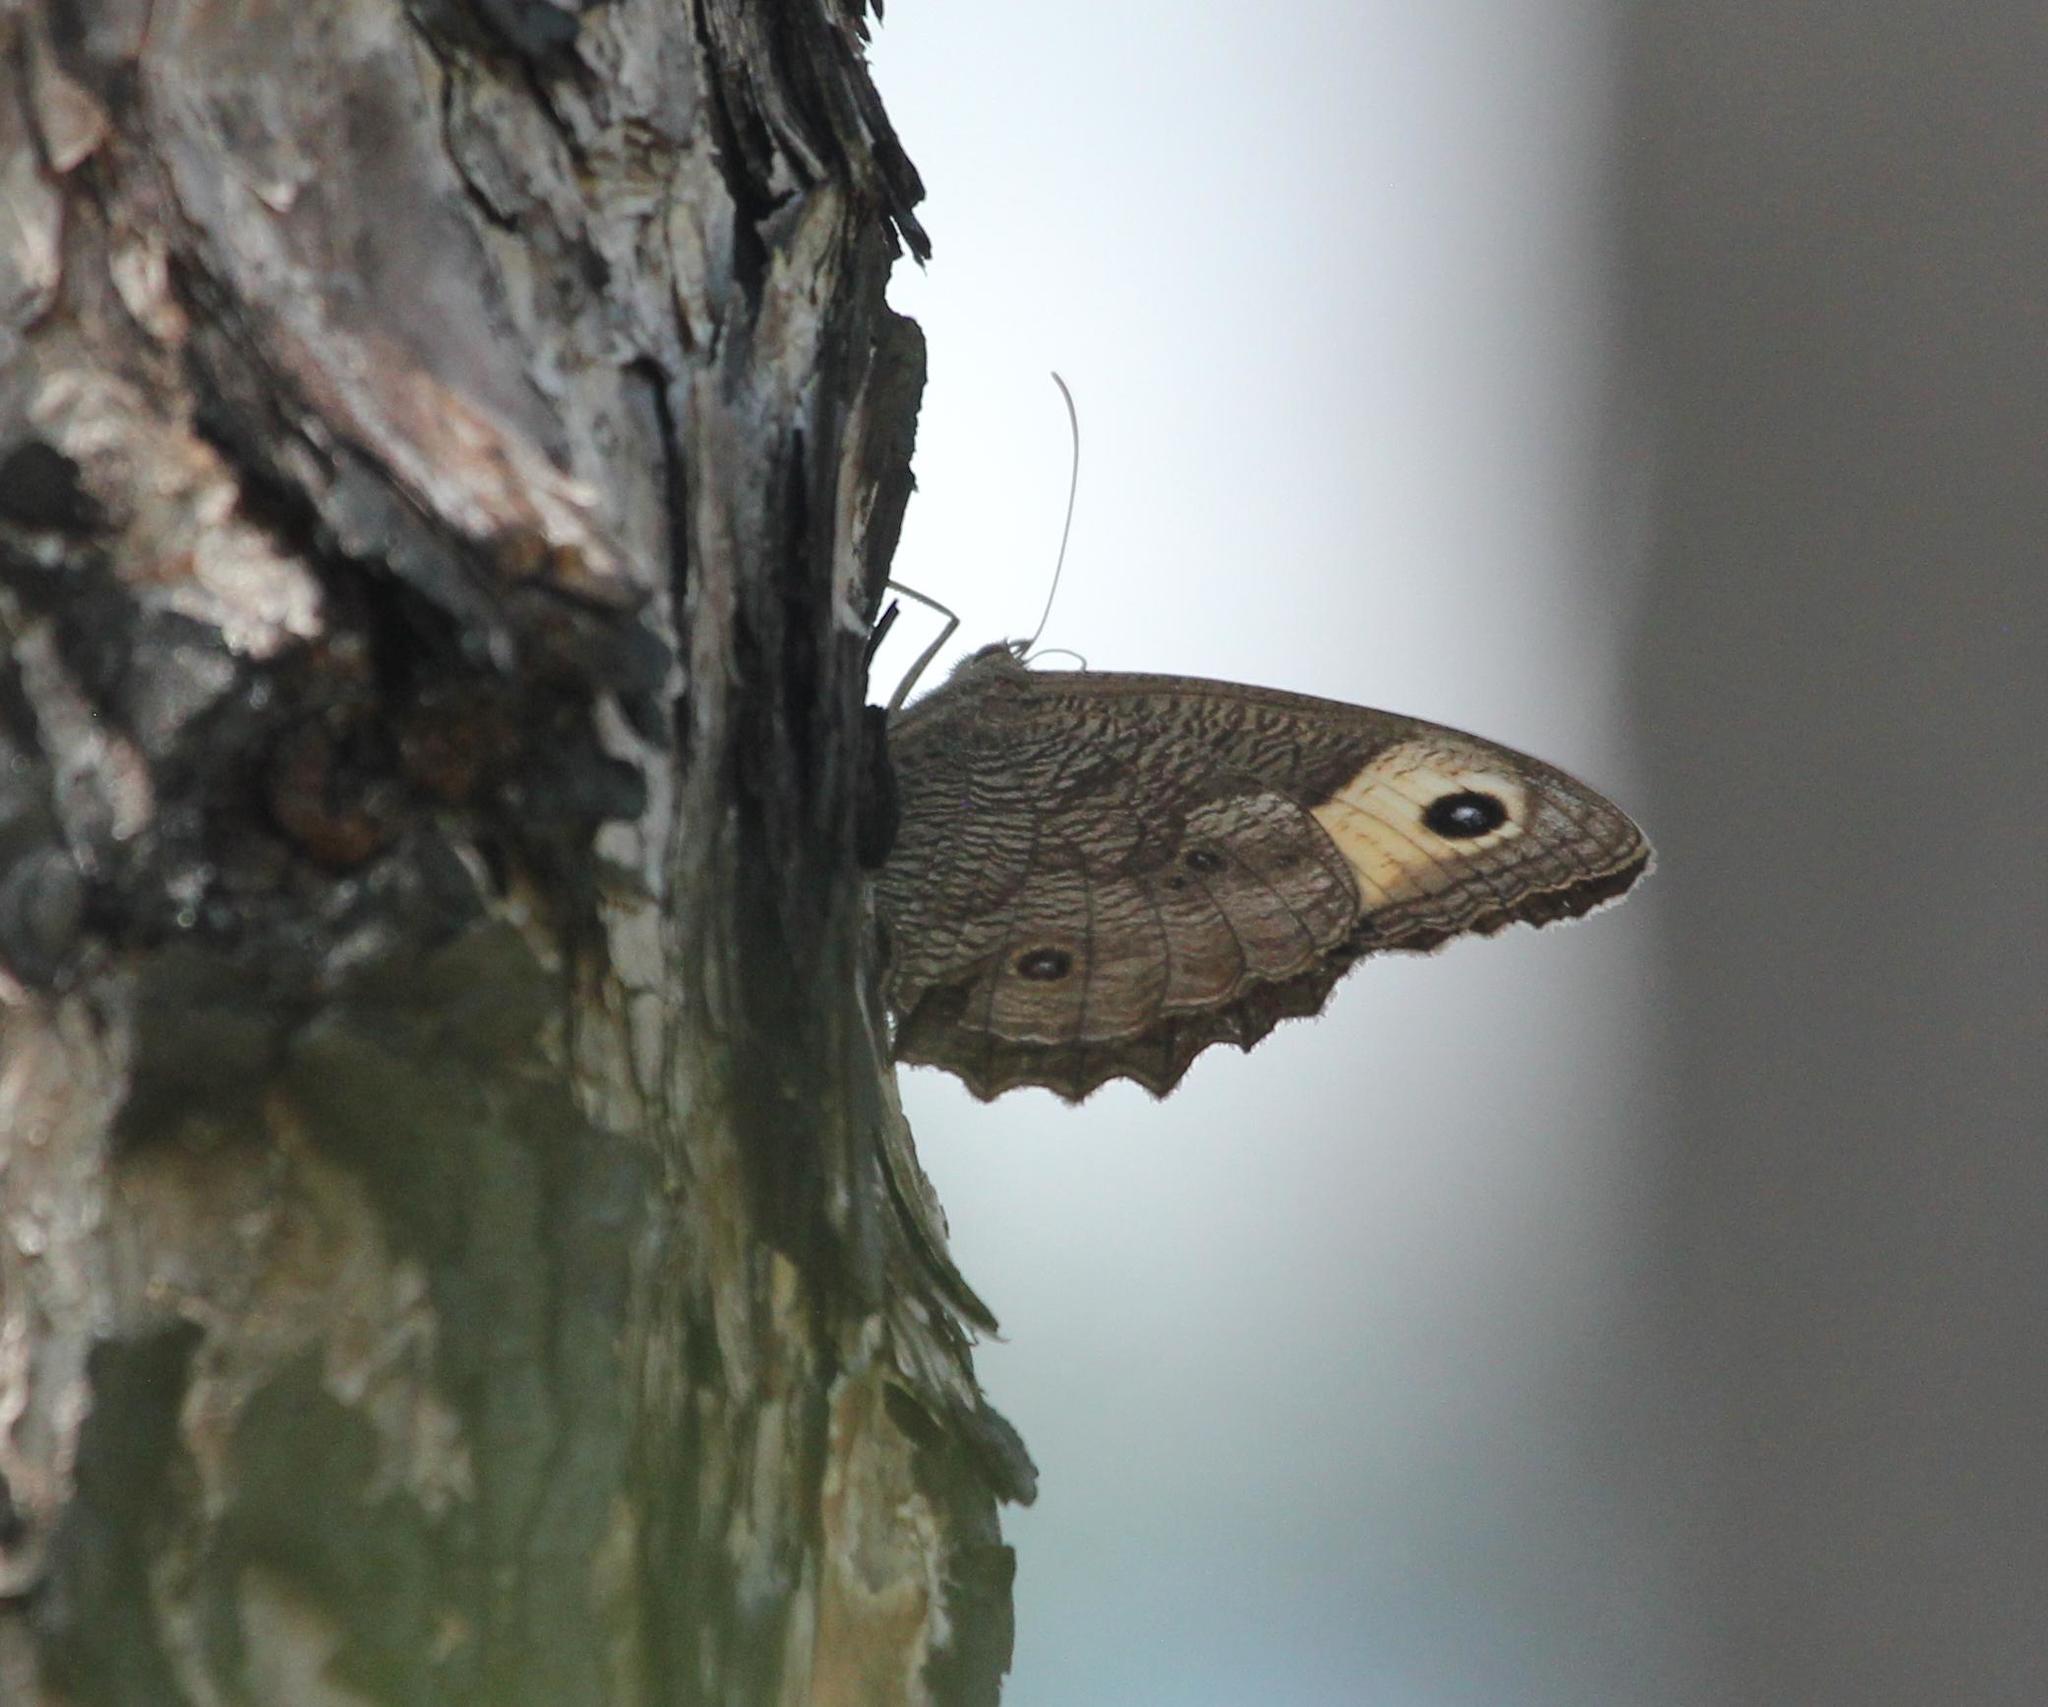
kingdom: Animalia
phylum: Arthropoda
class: Insecta
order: Lepidoptera
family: Nymphalidae
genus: Cercyonis
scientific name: Cercyonis pegala
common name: Common wood-nymph
